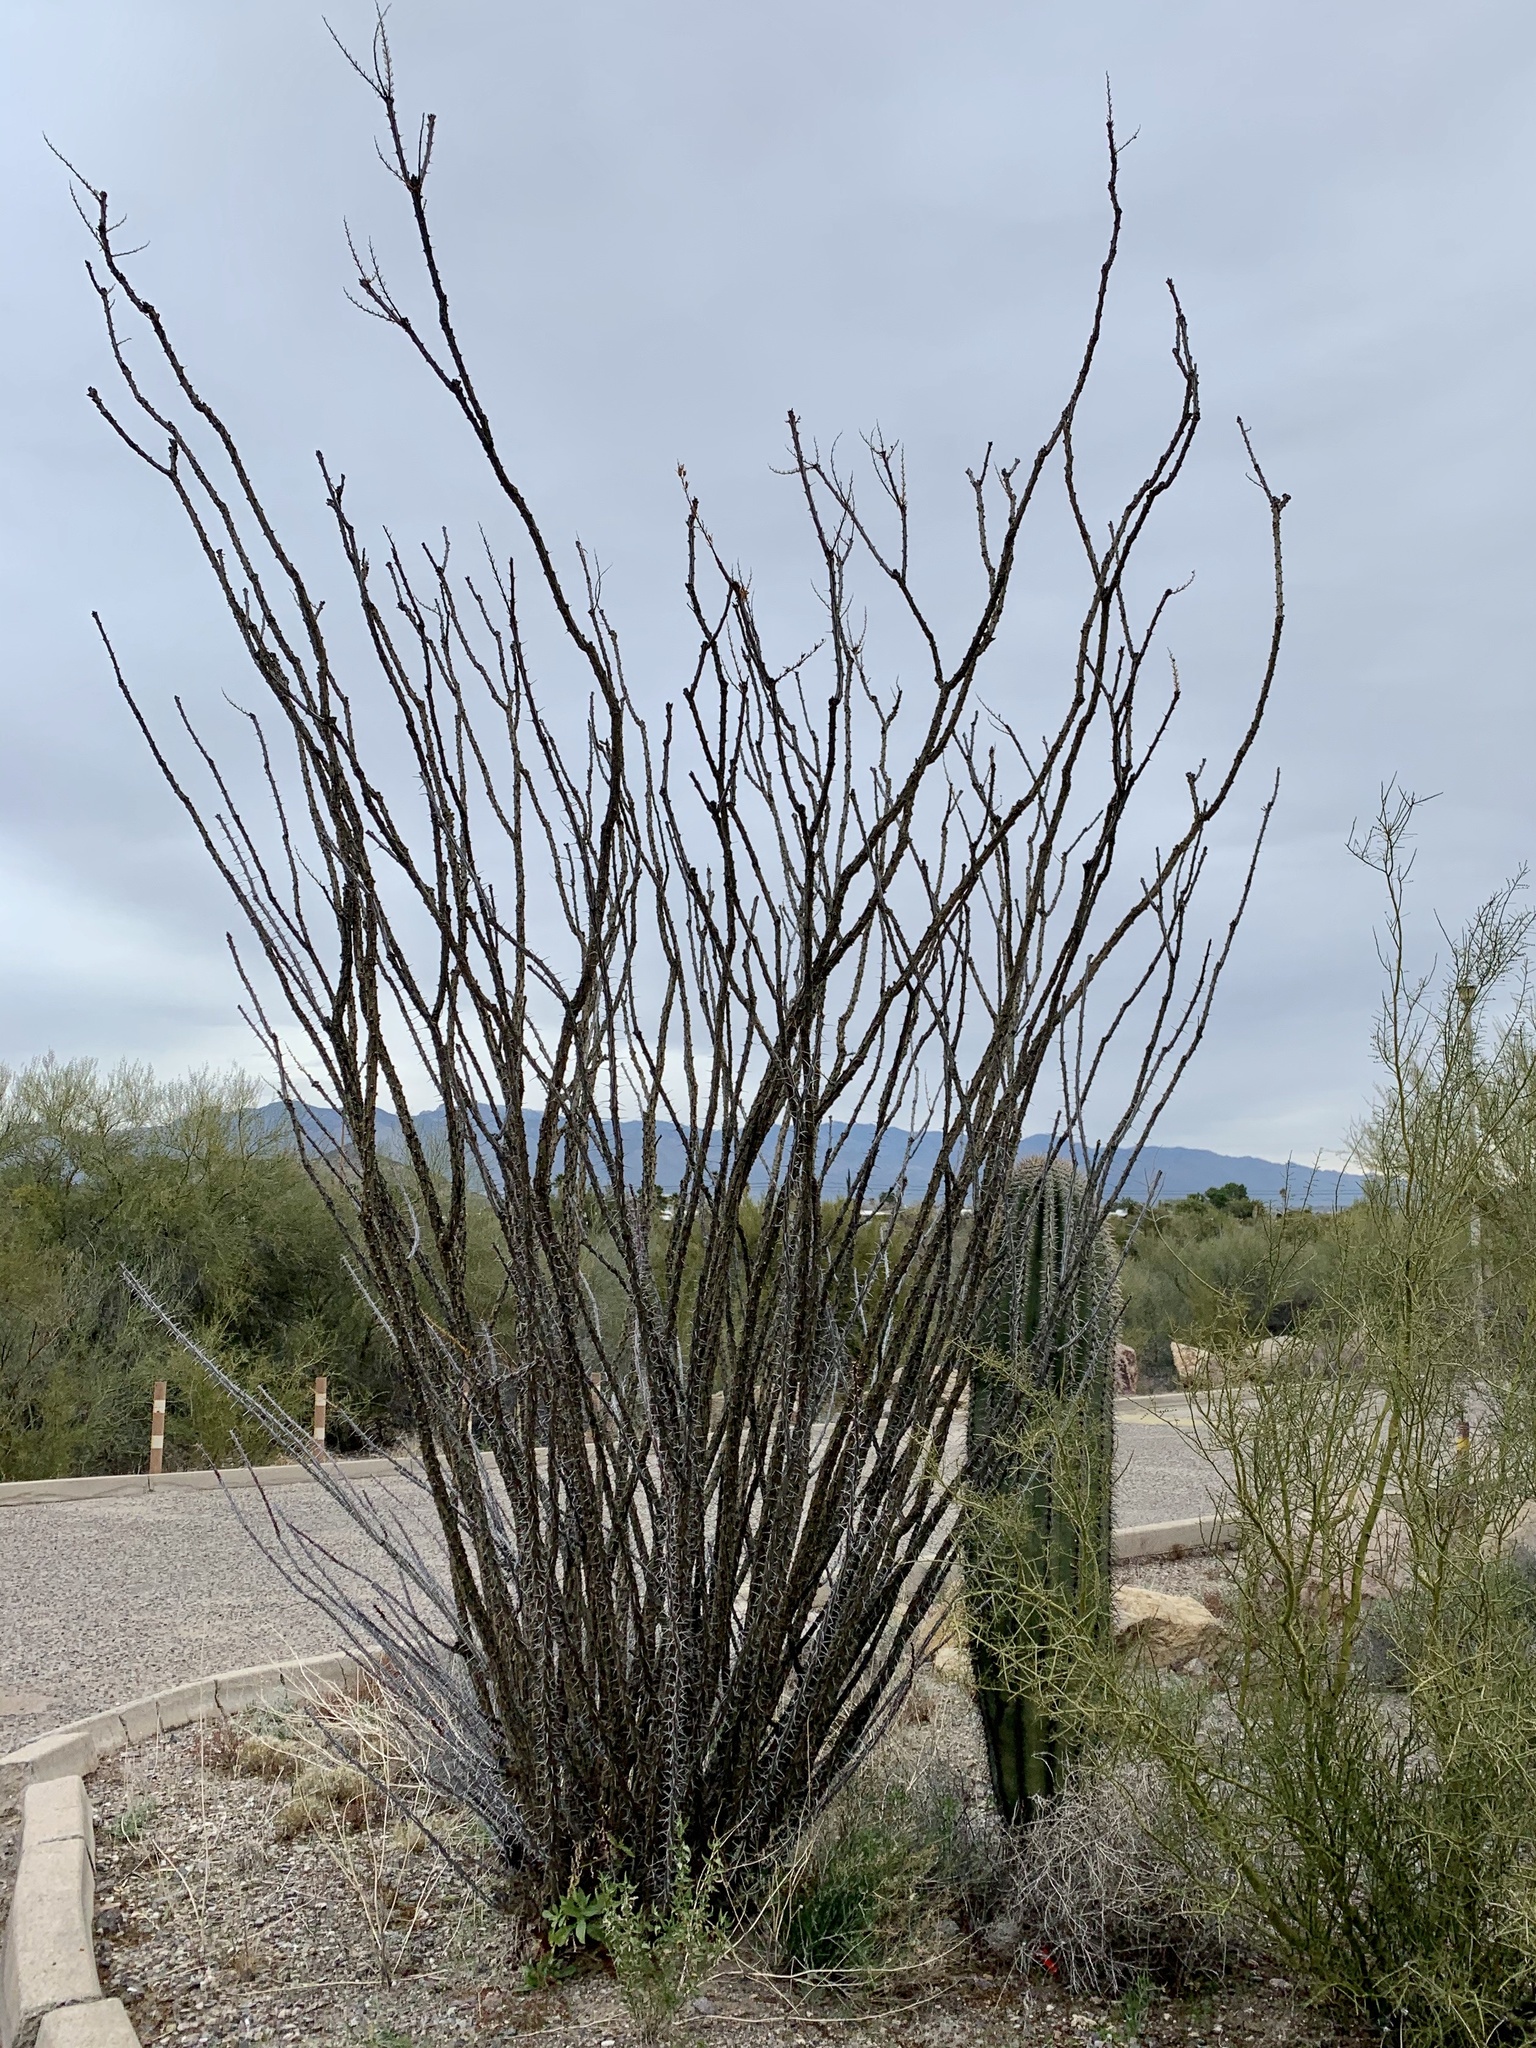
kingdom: Plantae
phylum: Tracheophyta
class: Magnoliopsida
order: Ericales
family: Fouquieriaceae
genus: Fouquieria
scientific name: Fouquieria splendens
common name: Vine-cactus
